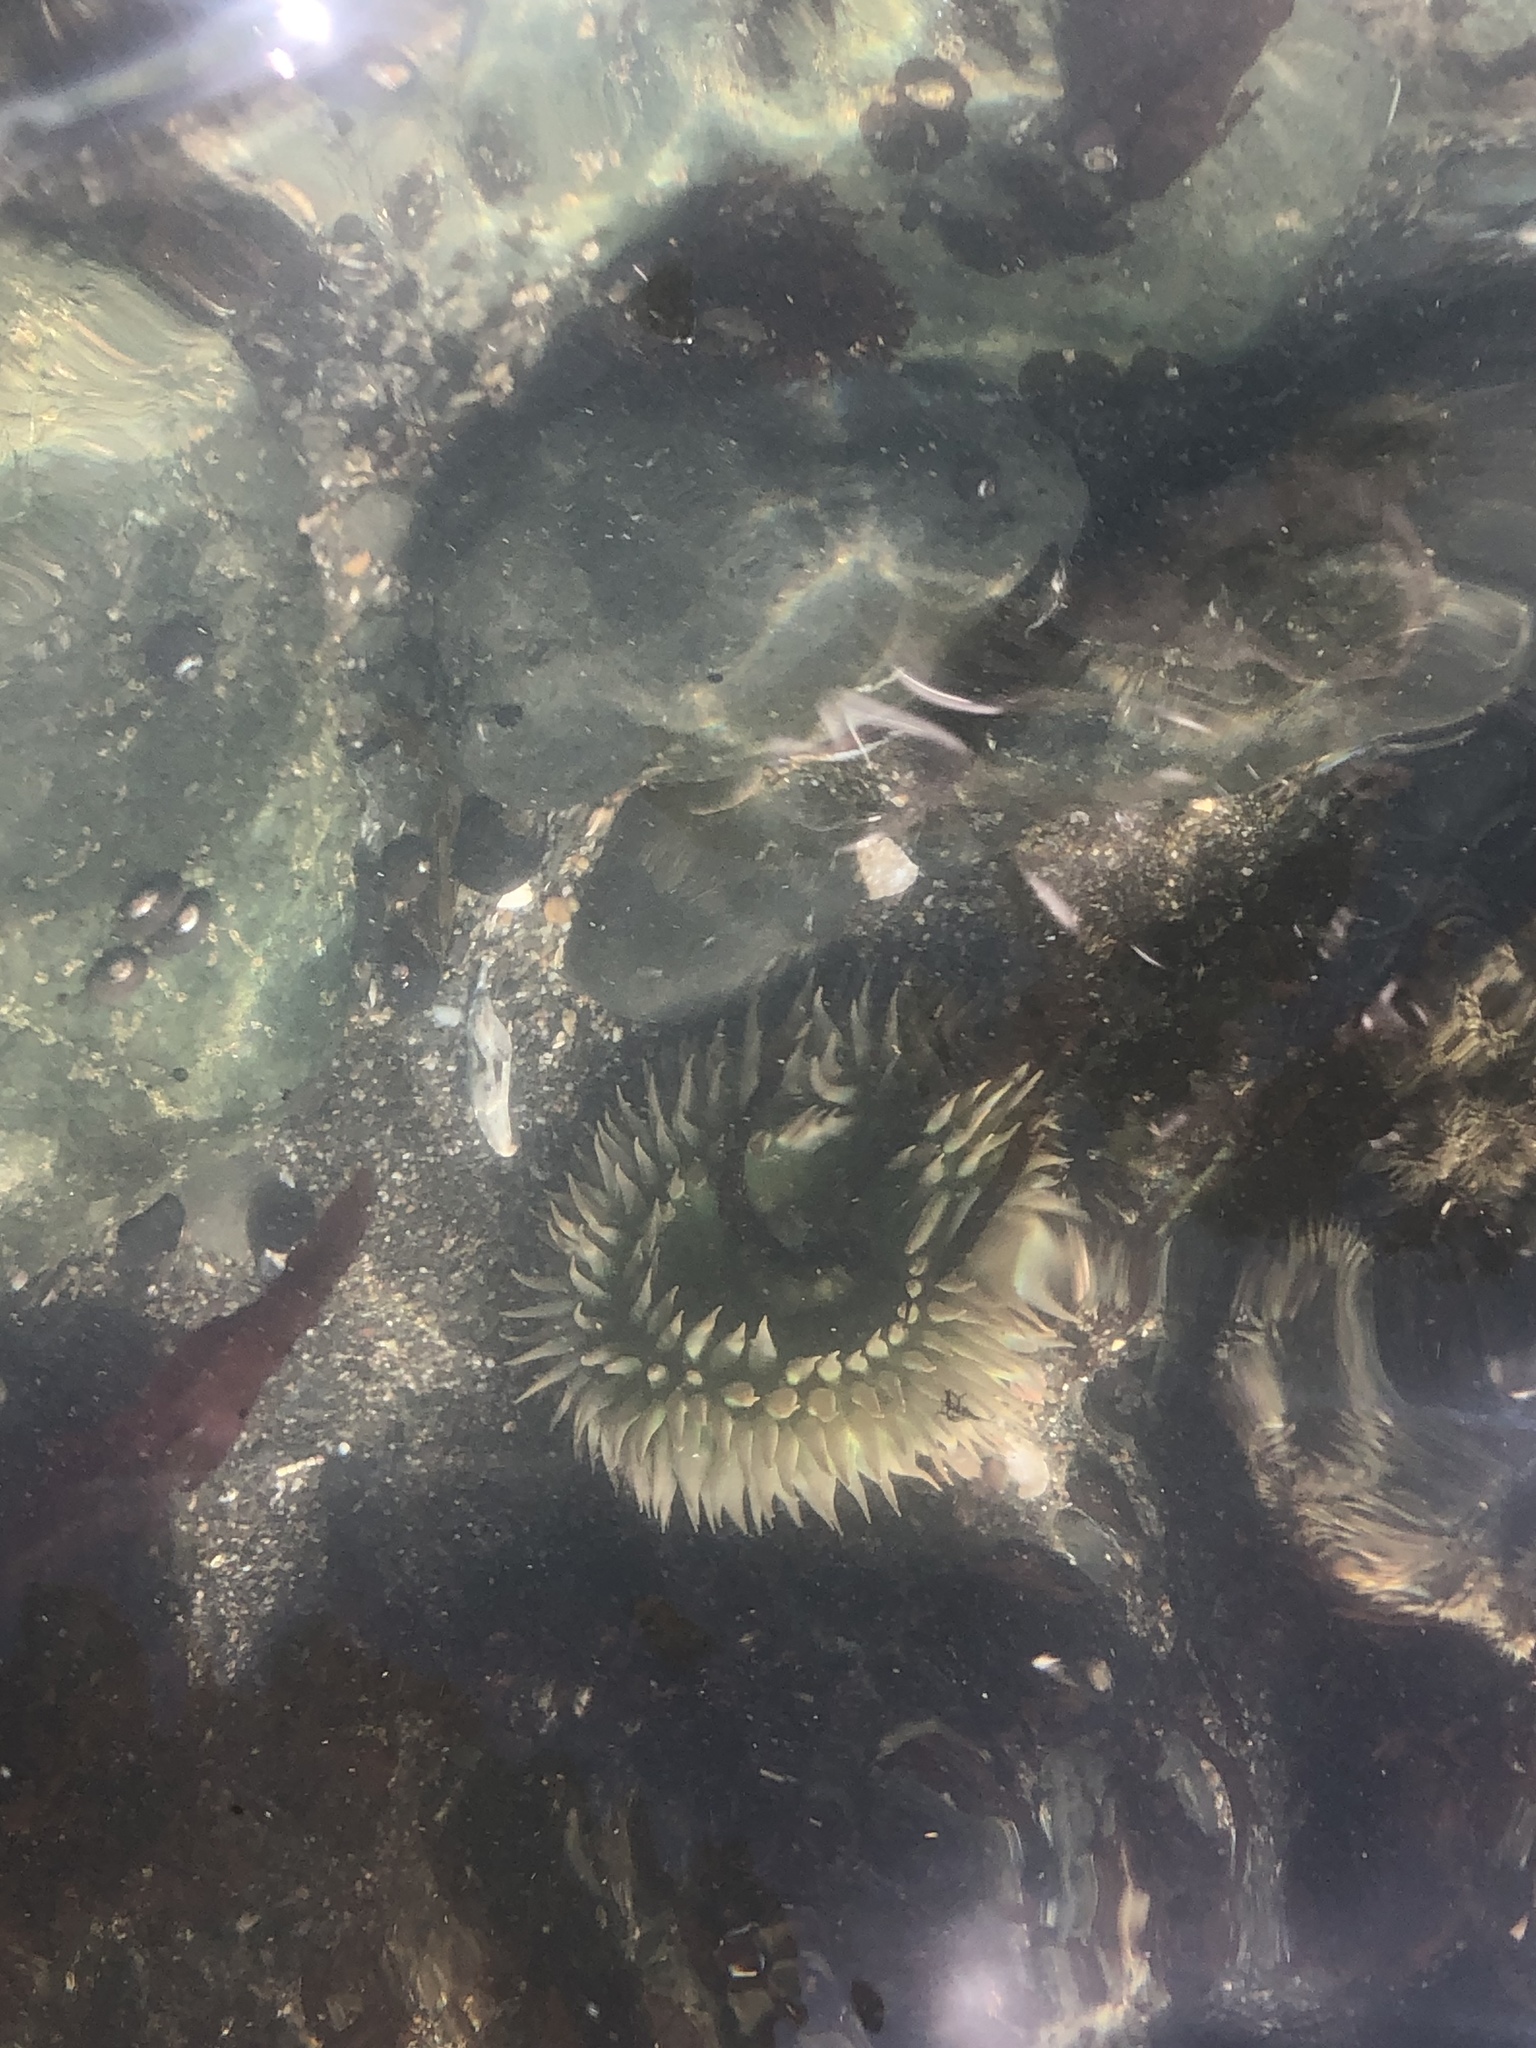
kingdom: Animalia
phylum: Cnidaria
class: Anthozoa
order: Actiniaria
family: Actiniidae
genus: Anthopleura
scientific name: Anthopleura xanthogrammica
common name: Giant green anemone
